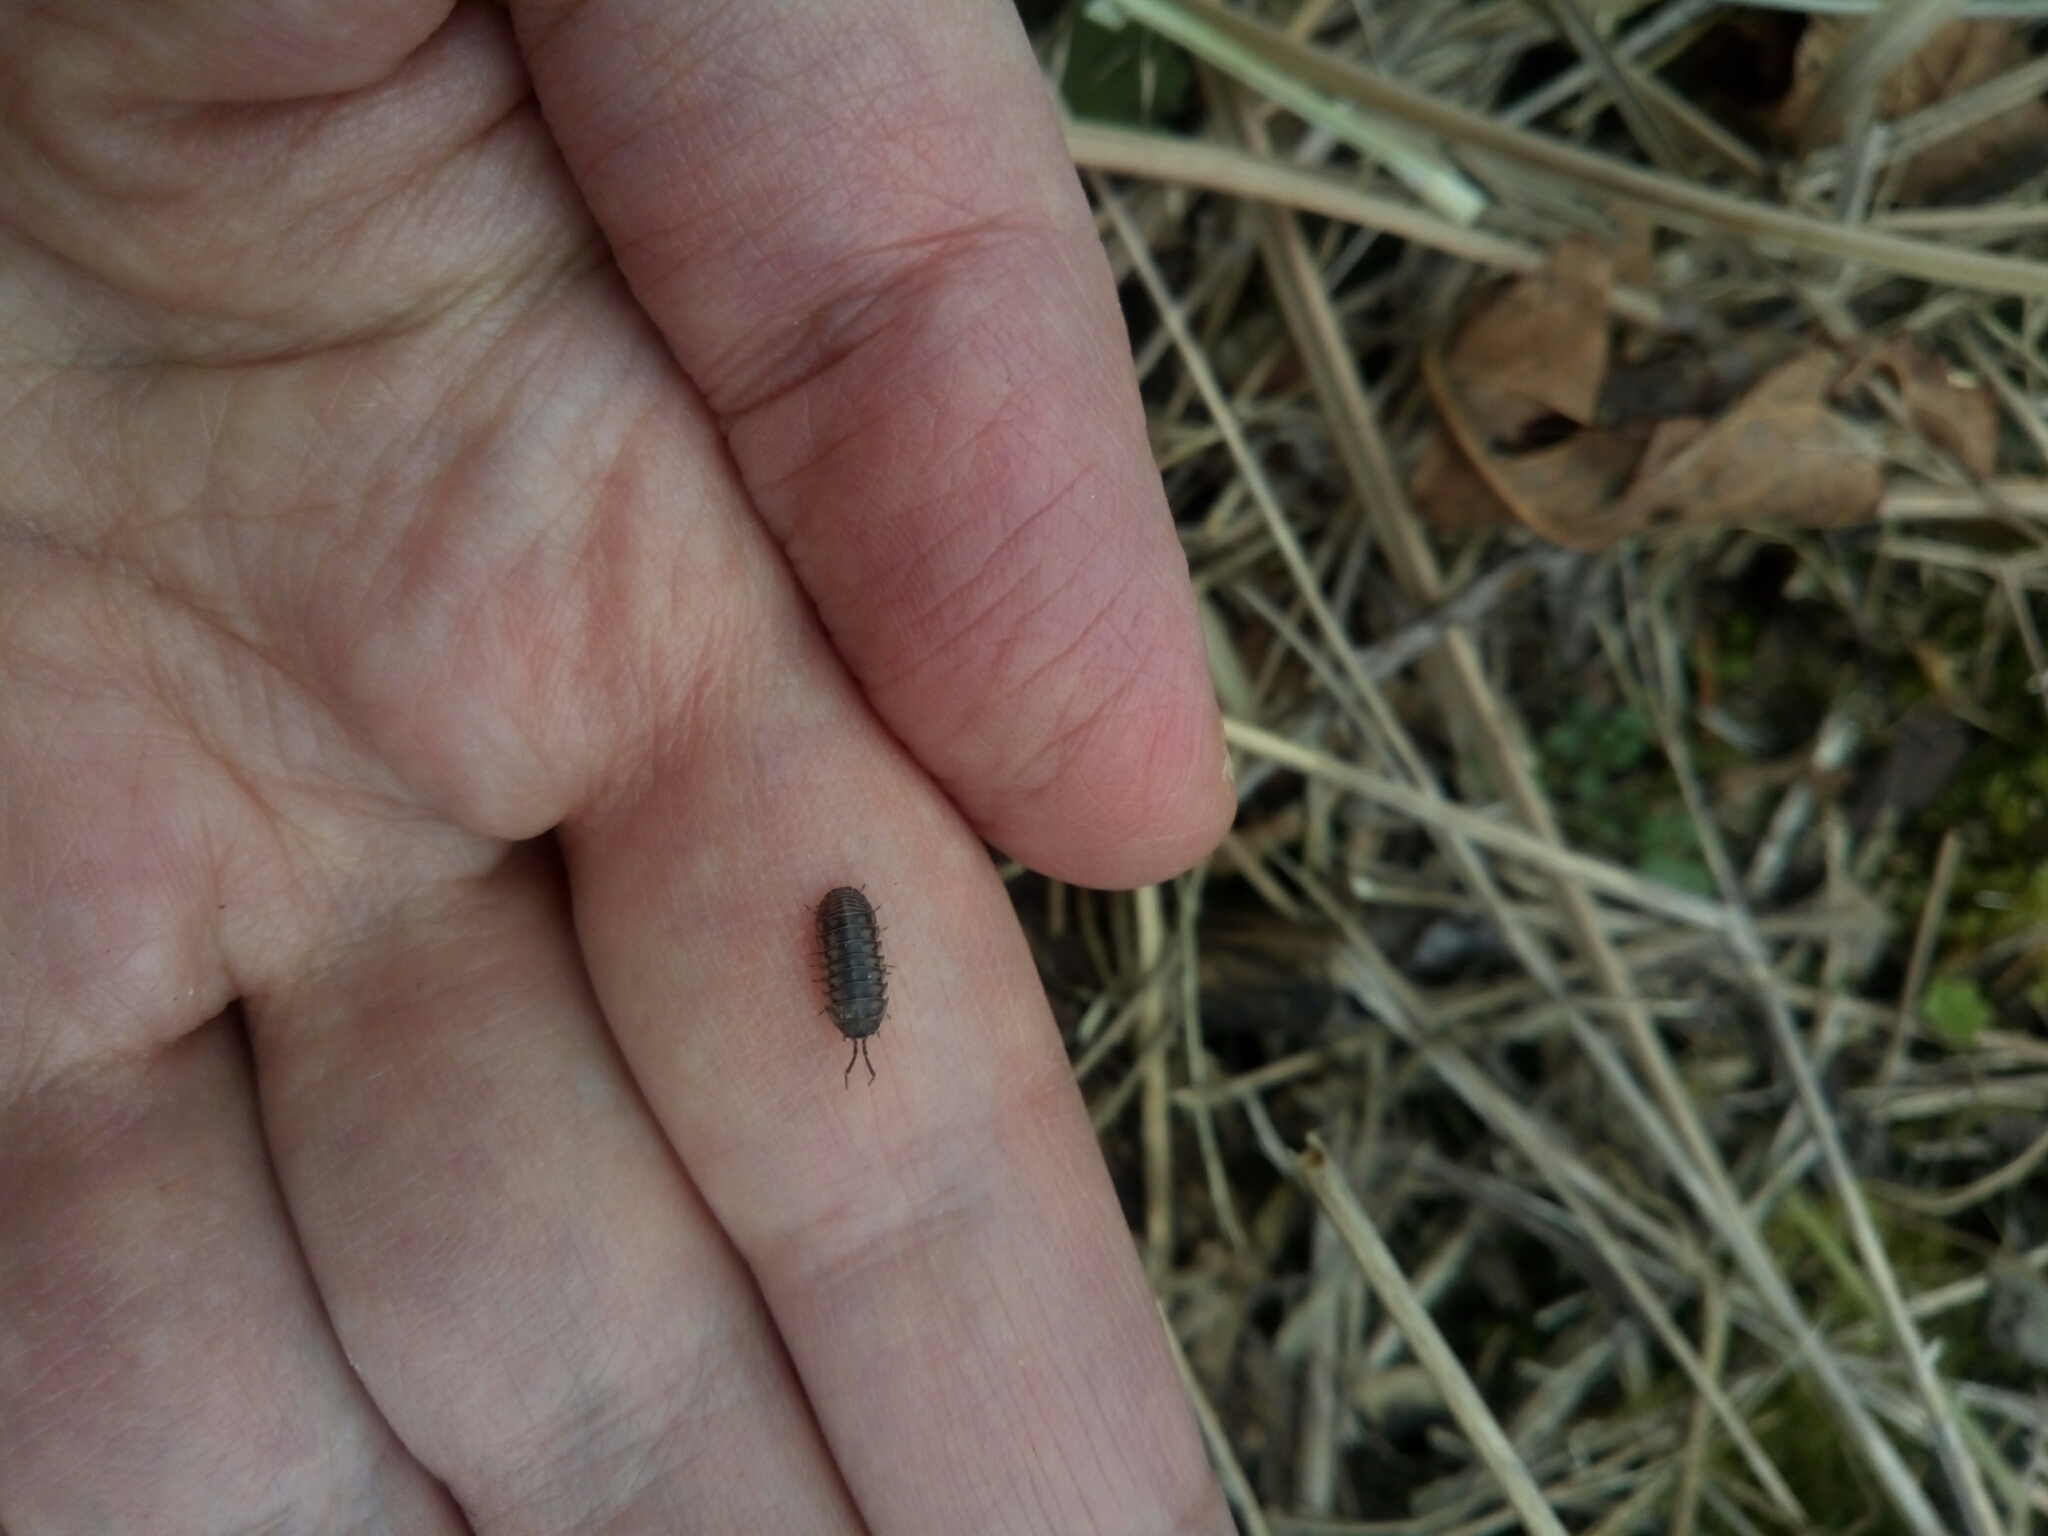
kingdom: Animalia
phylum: Arthropoda
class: Malacostraca
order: Isopoda
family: Armadillidiidae
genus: Armadillidium
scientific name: Armadillidium nasatum
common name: Isopod
